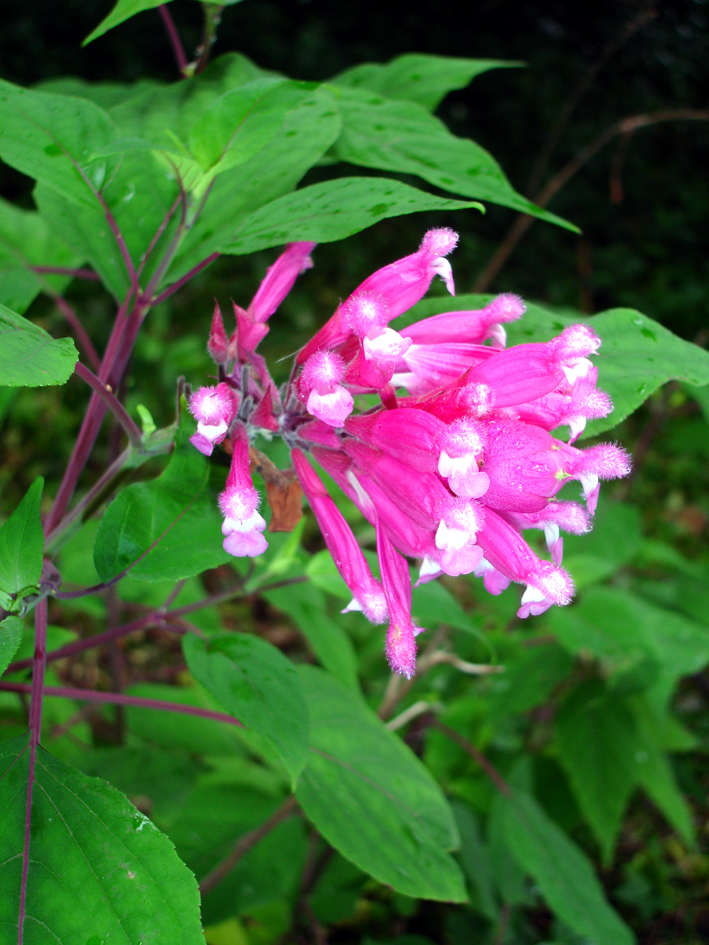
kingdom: Plantae
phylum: Tracheophyta
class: Magnoliopsida
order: Lamiales
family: Lamiaceae
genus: Salvia
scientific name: Salvia involucrata
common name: Roseleaf sage
